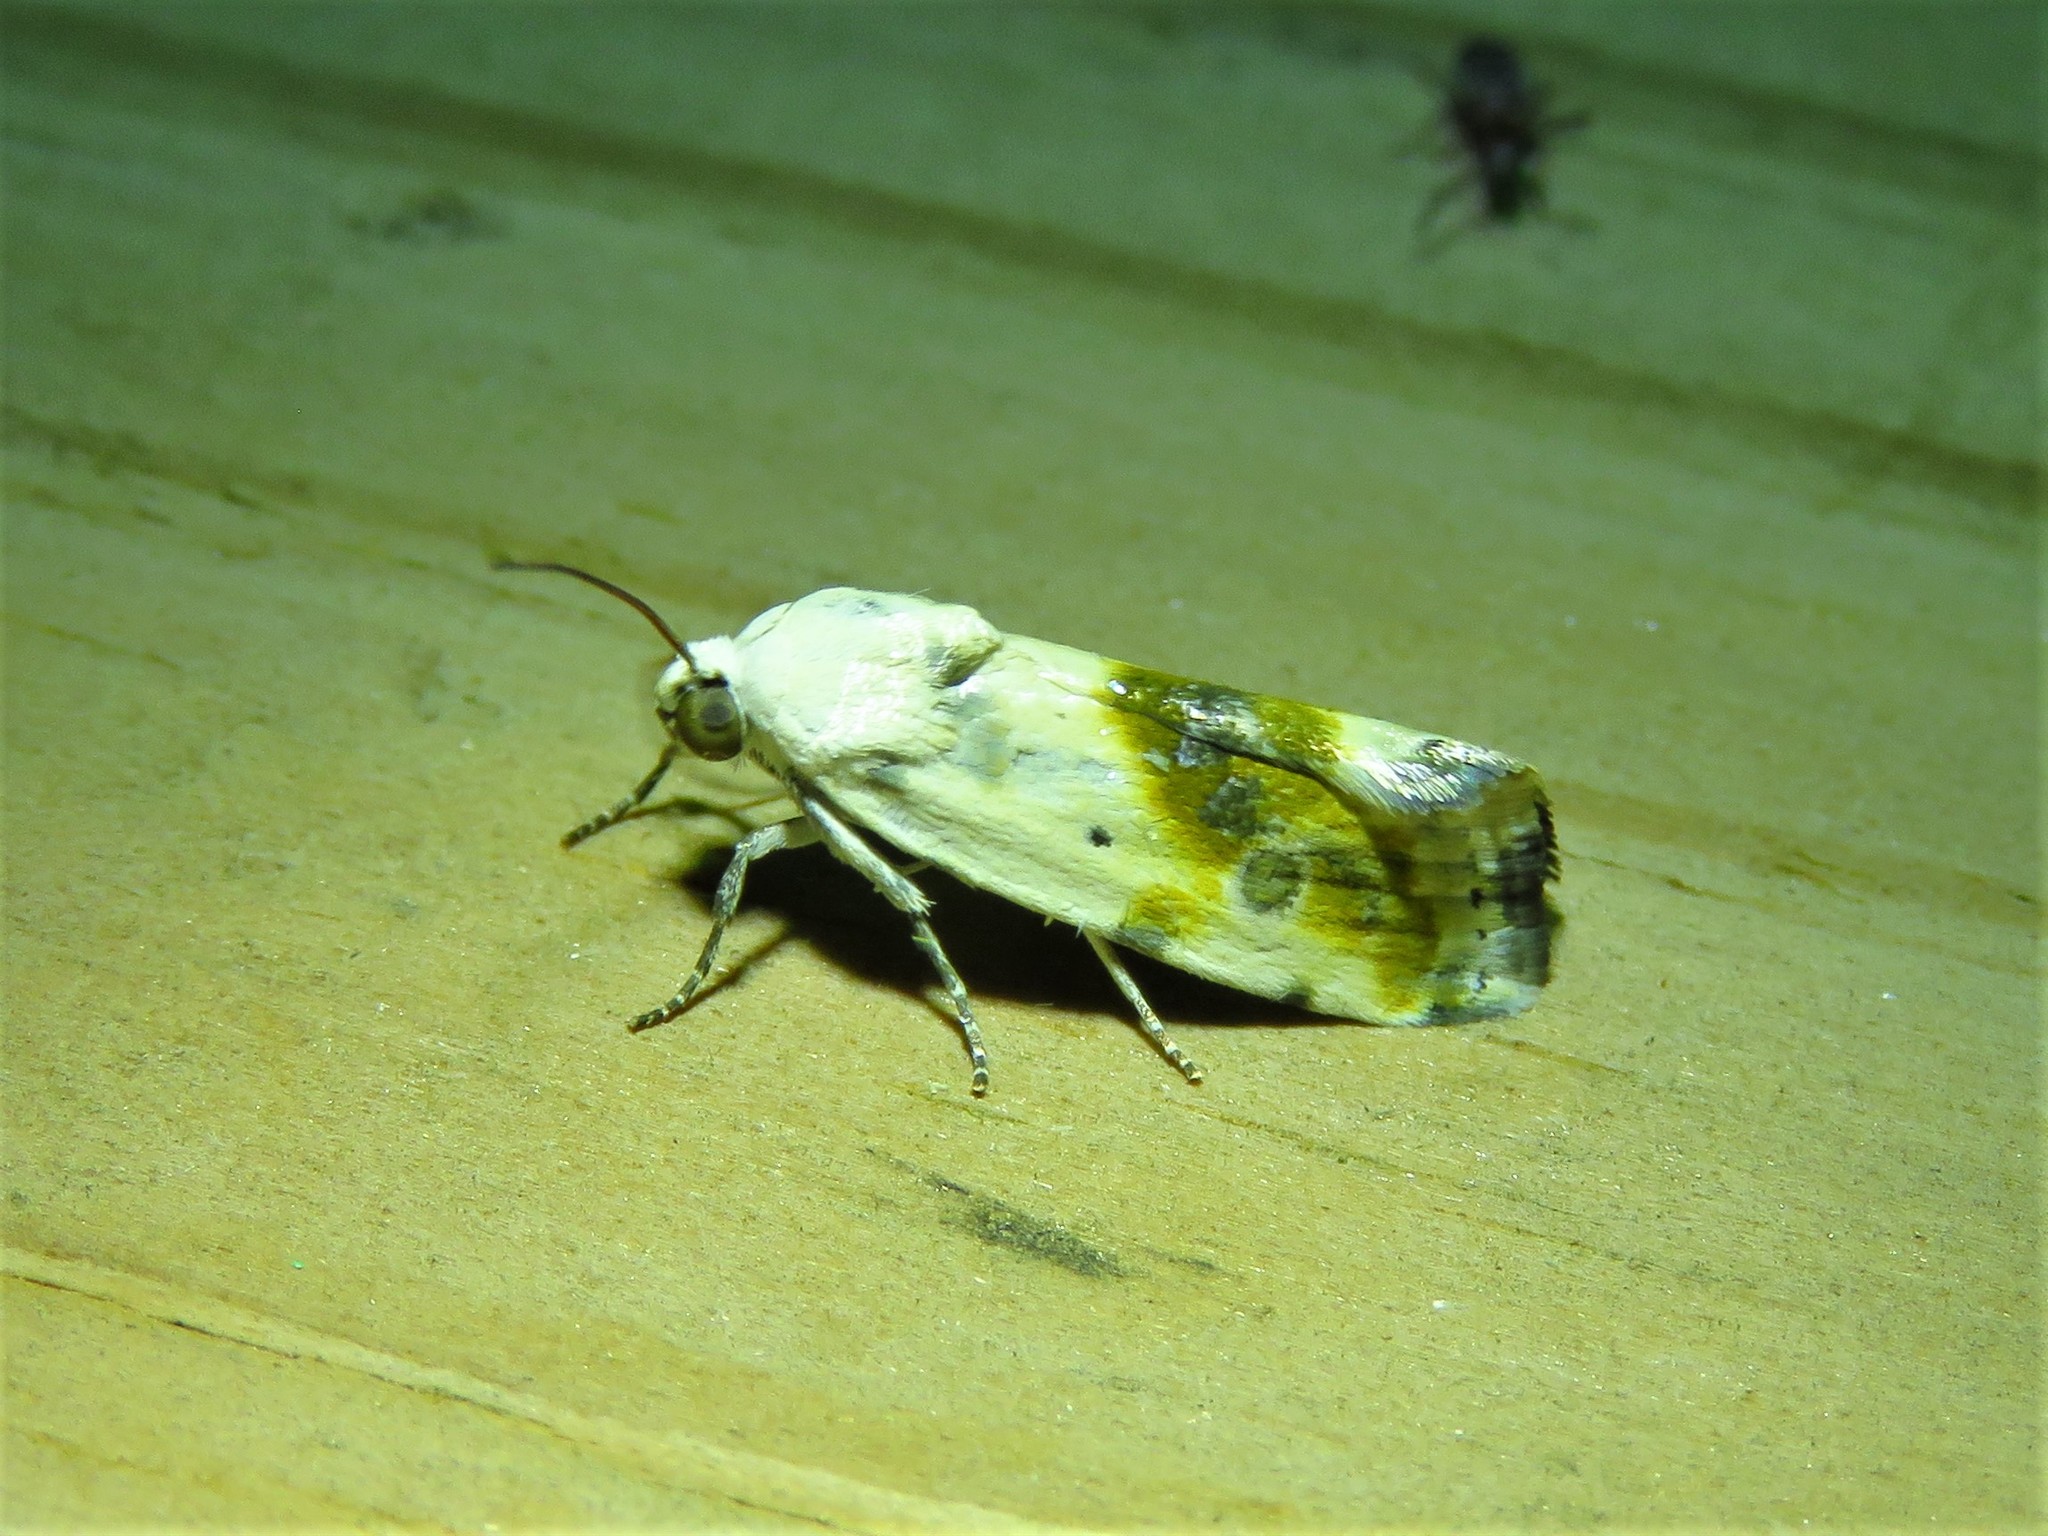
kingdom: Animalia
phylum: Arthropoda
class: Insecta
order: Lepidoptera
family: Noctuidae
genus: Acontia
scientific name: Acontia candefacta
